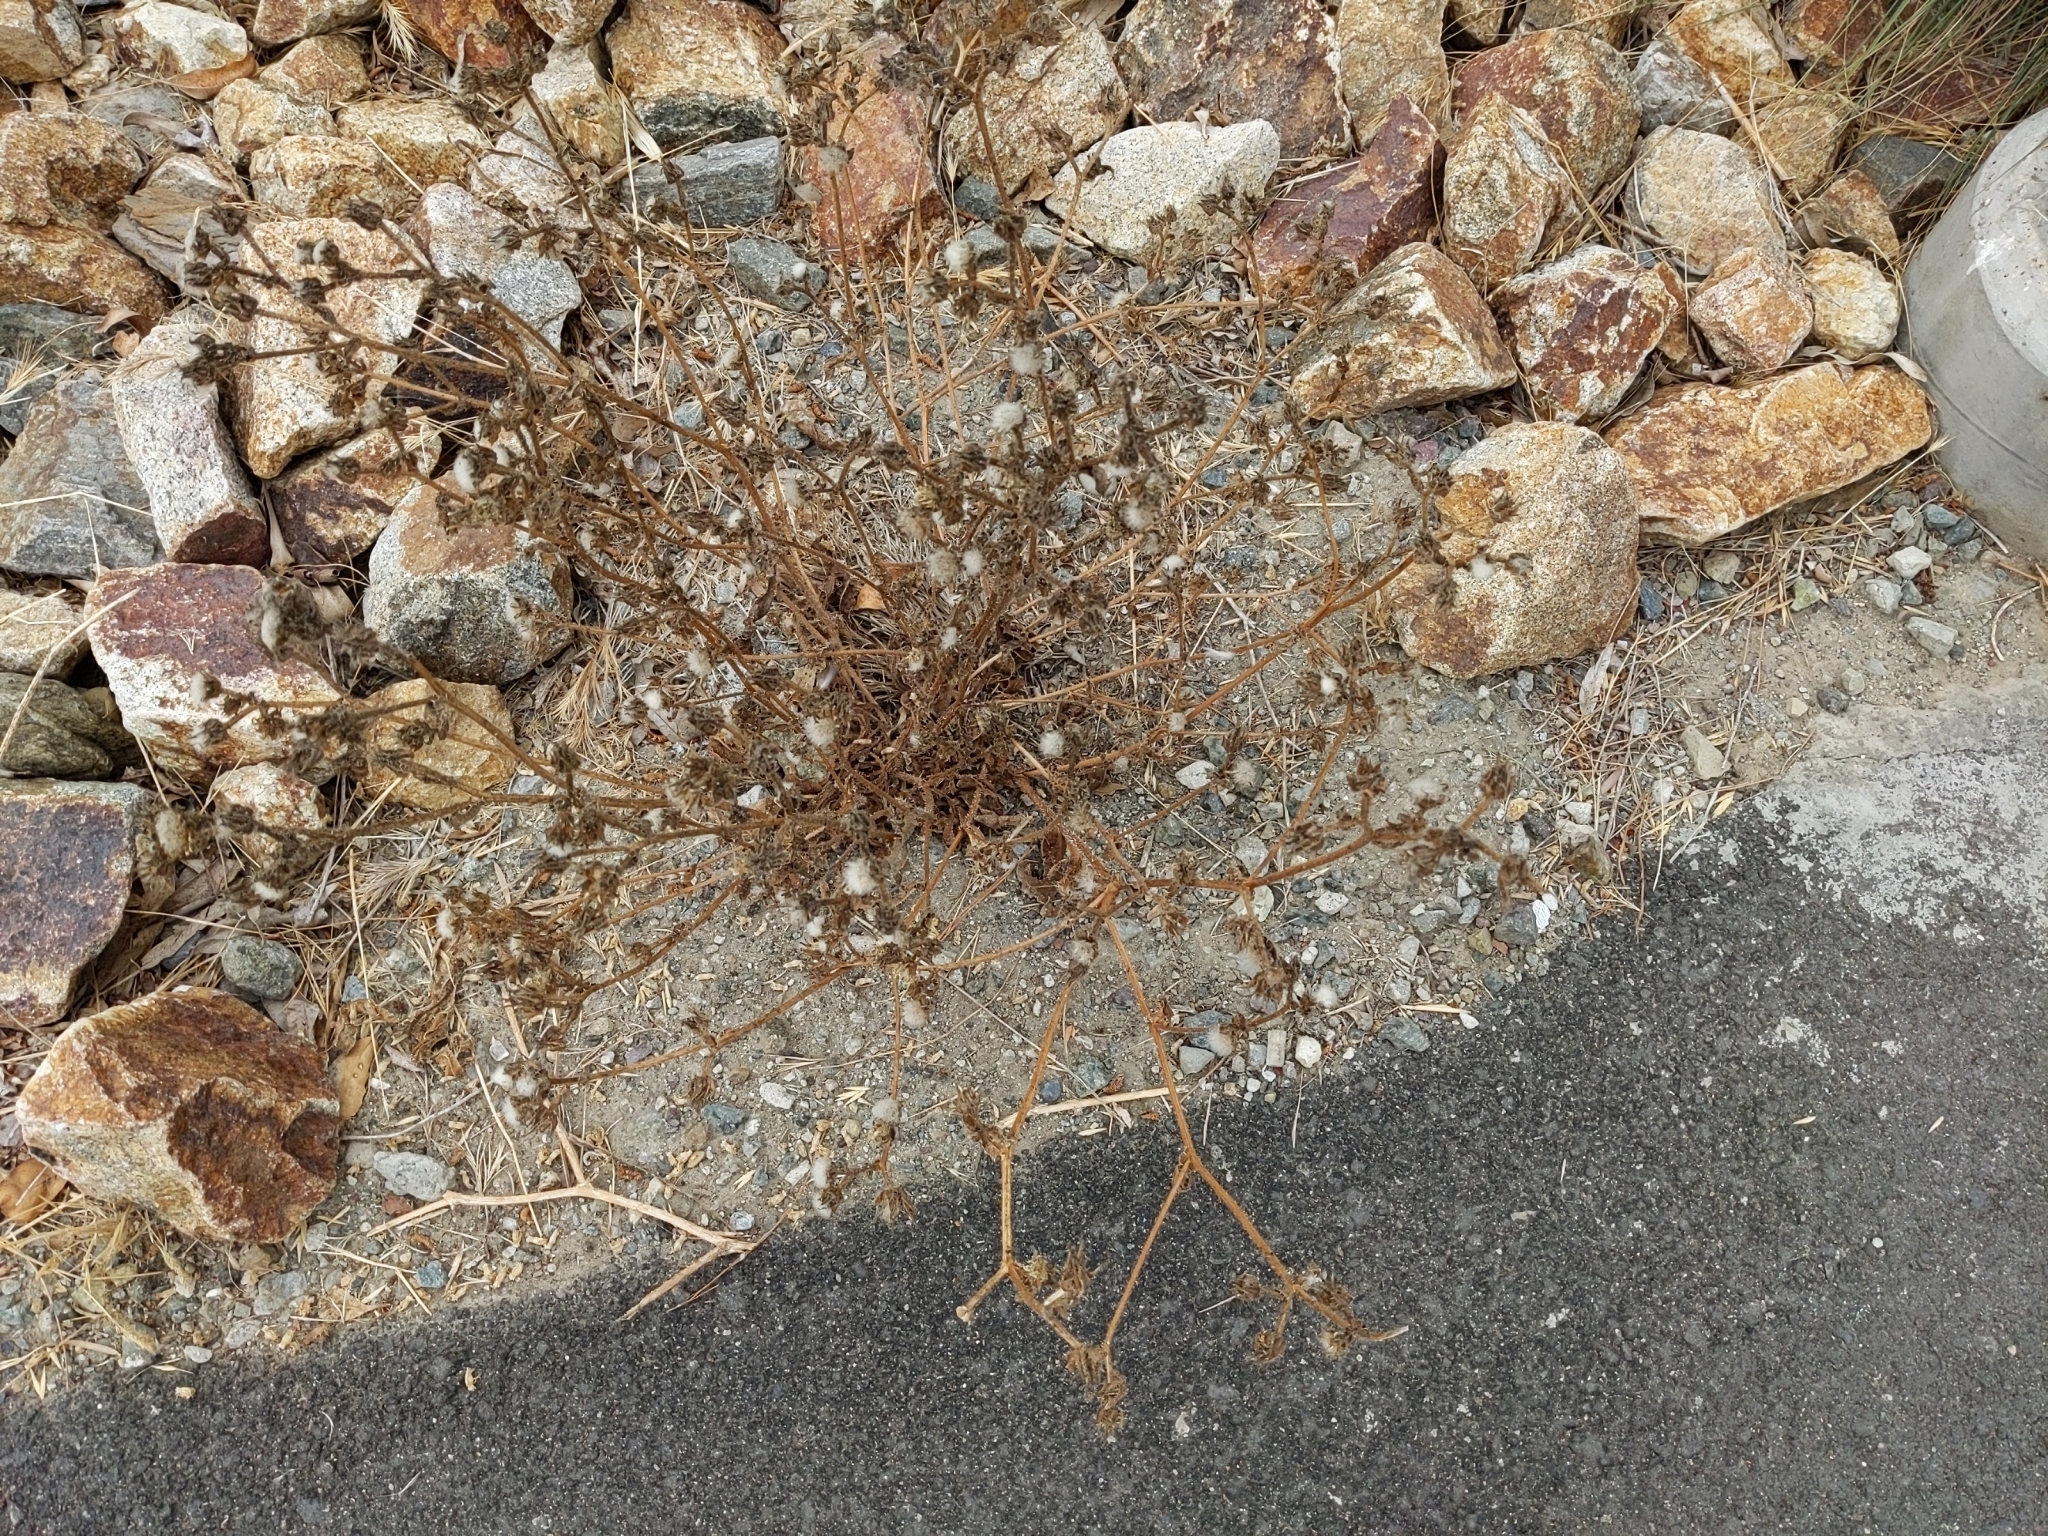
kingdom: Plantae
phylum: Tracheophyta
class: Magnoliopsida
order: Asterales
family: Asteraceae
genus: Helminthotheca
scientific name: Helminthotheca echioides
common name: Ox-tongue
